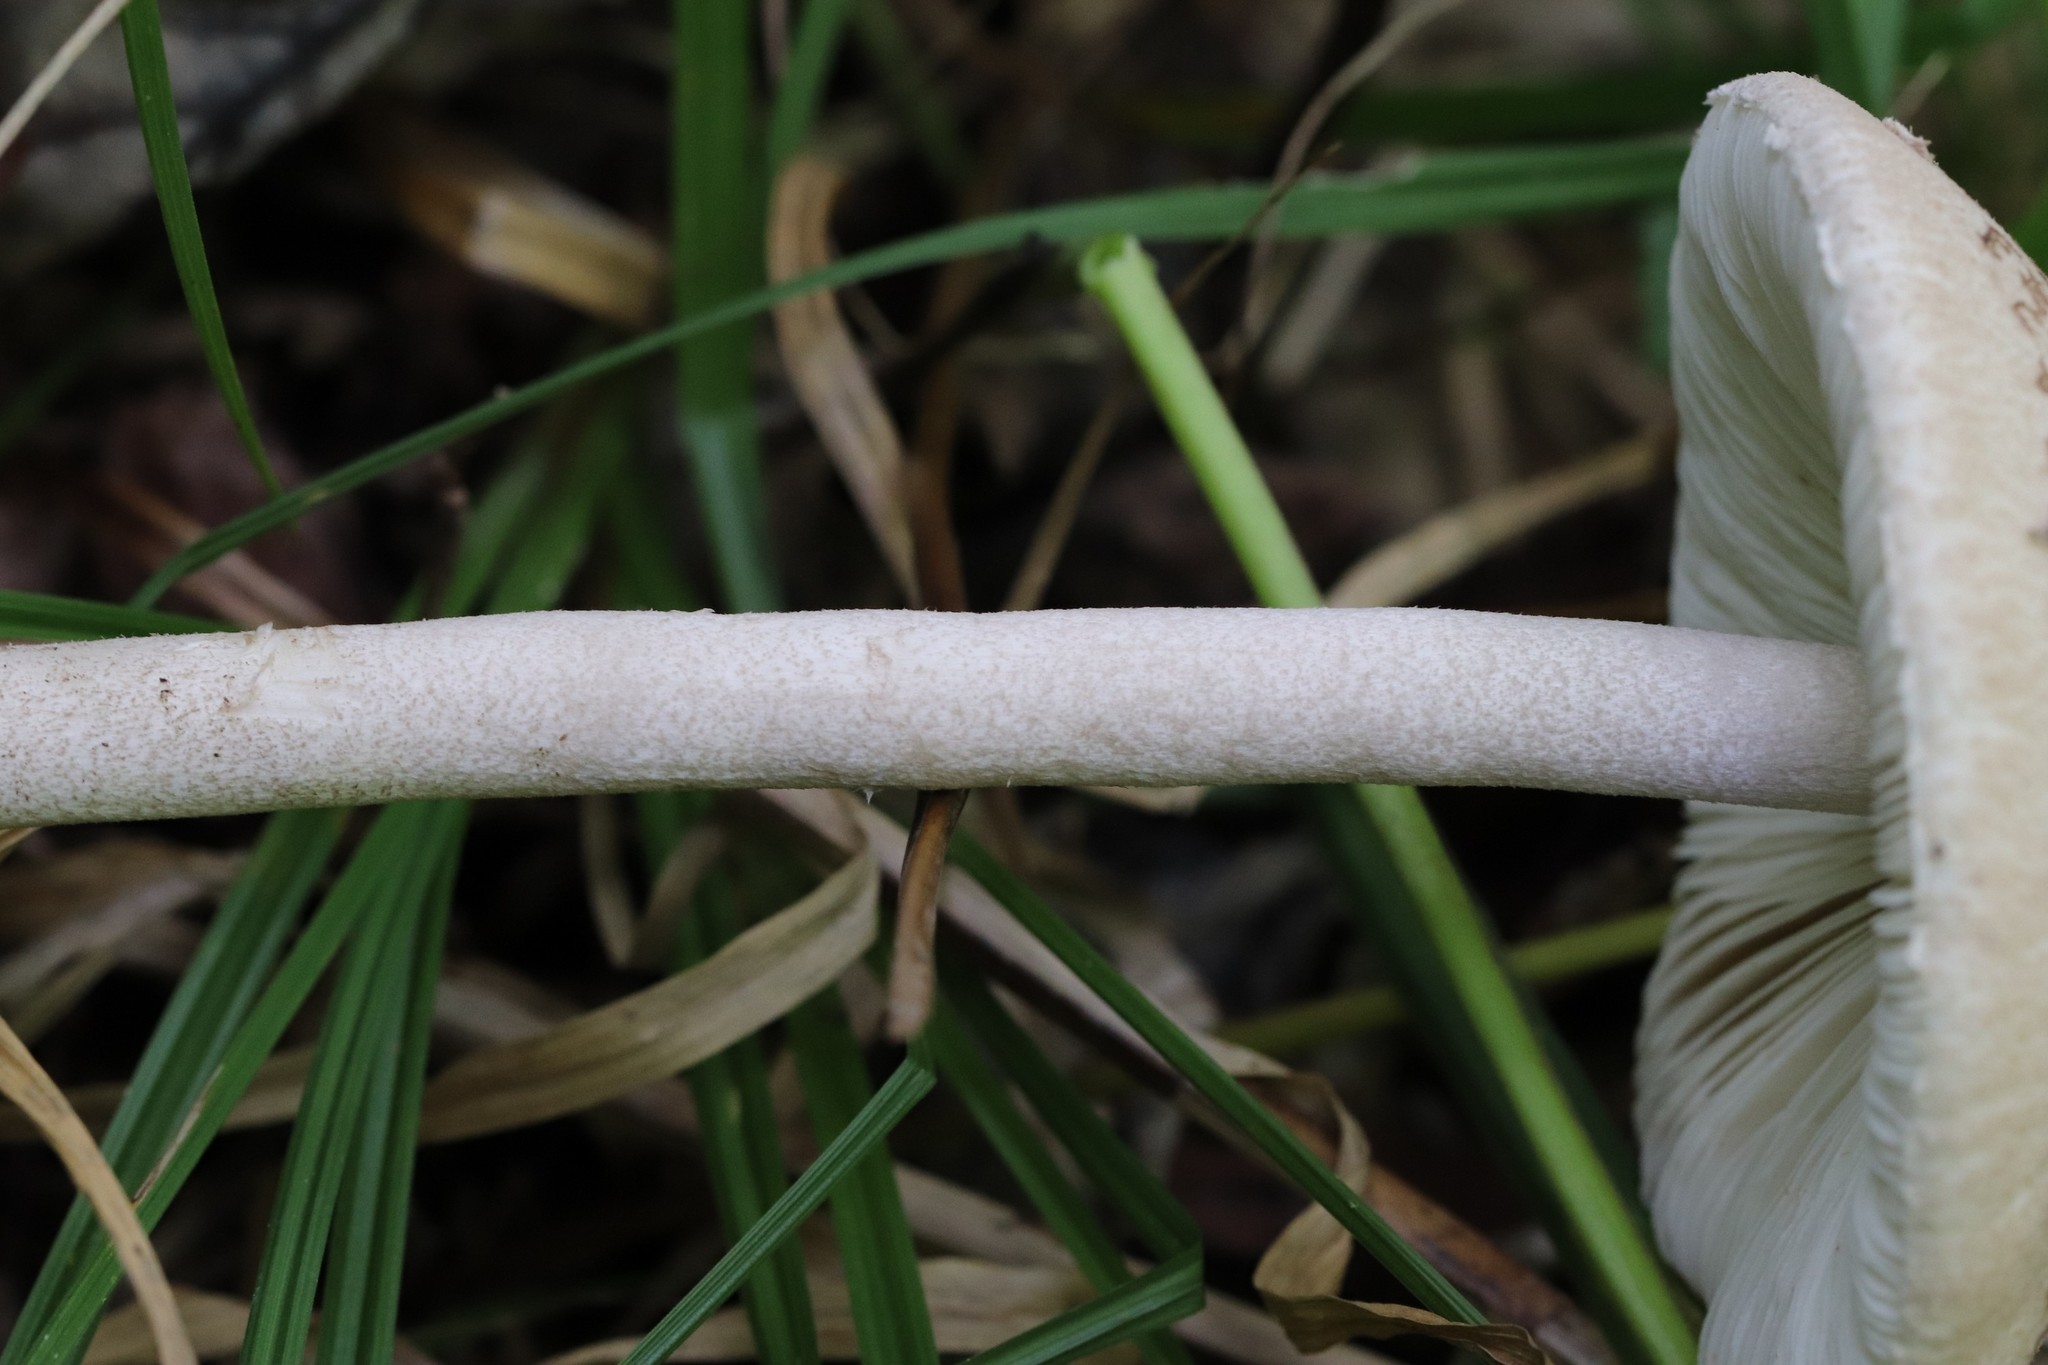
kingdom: Fungi
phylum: Basidiomycota
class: Agaricomycetes
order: Agaricales
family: Agaricaceae
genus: Macrolepiota
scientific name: Macrolepiota mastoidea
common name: Slender parasol
